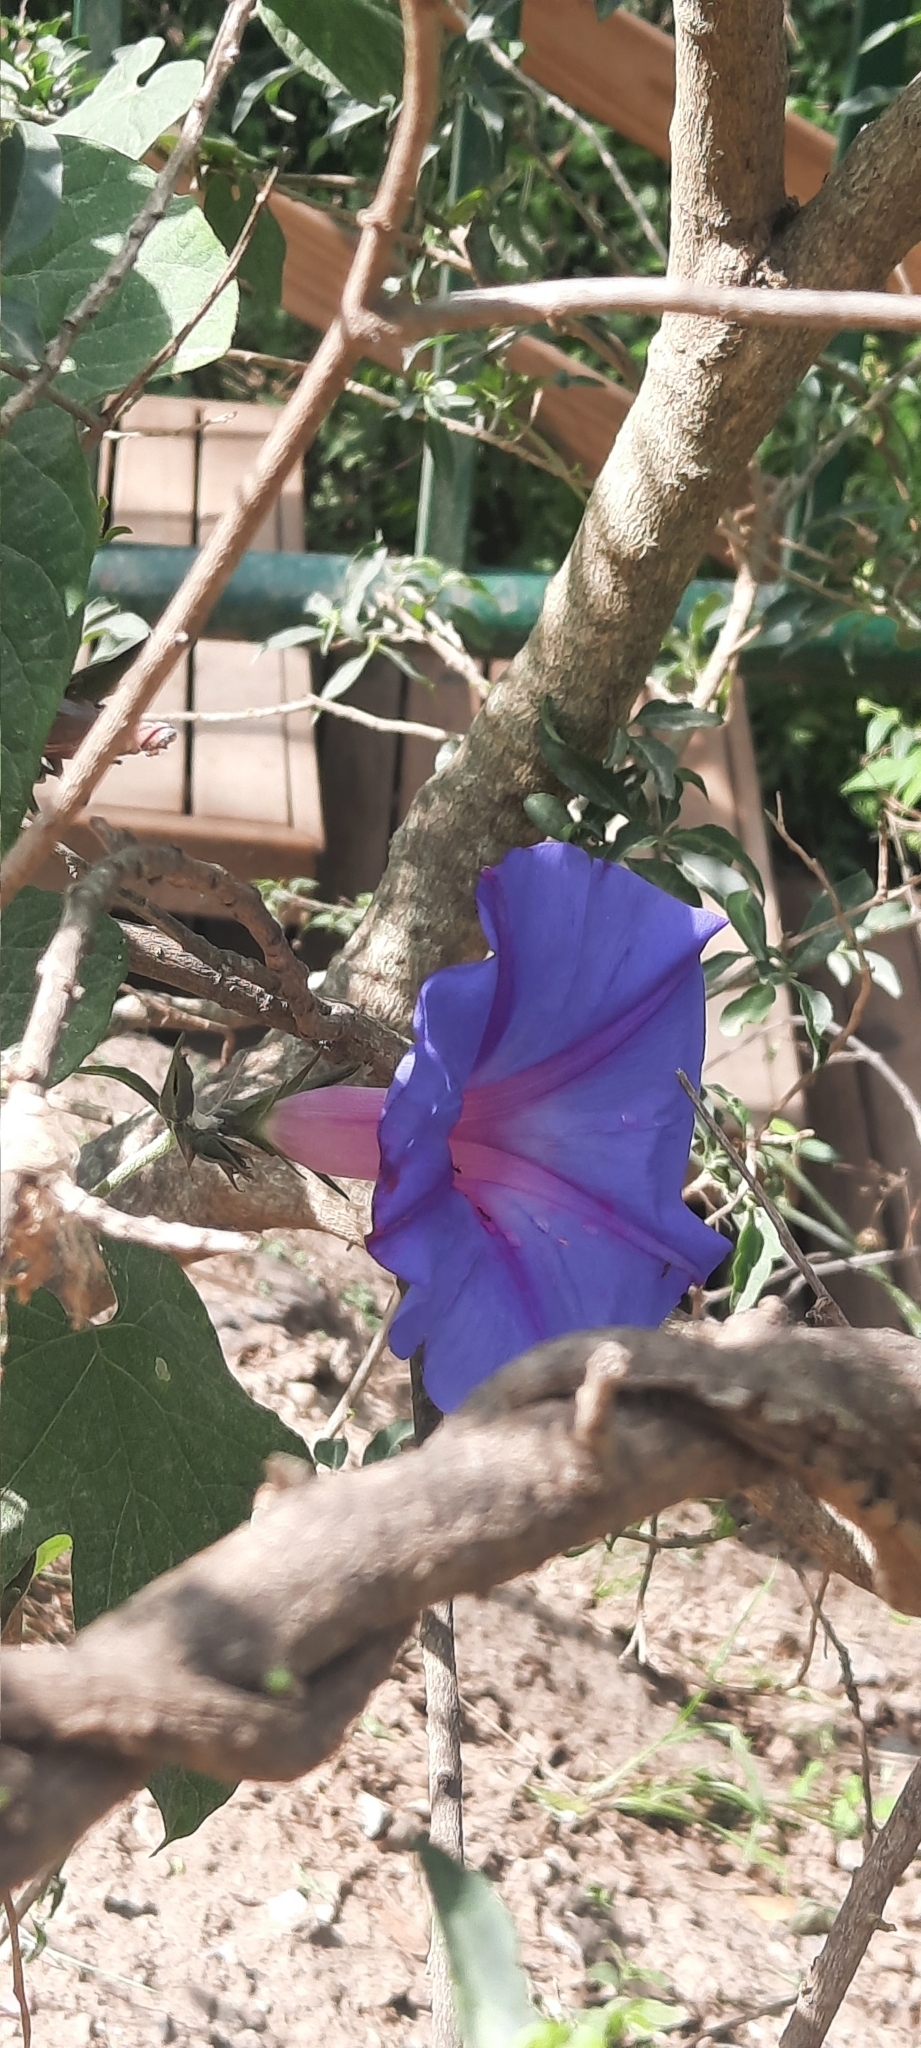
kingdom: Plantae
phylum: Tracheophyta
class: Magnoliopsida
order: Solanales
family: Convolvulaceae
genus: Ipomoea
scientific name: Ipomoea indica
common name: Blue dawnflower
